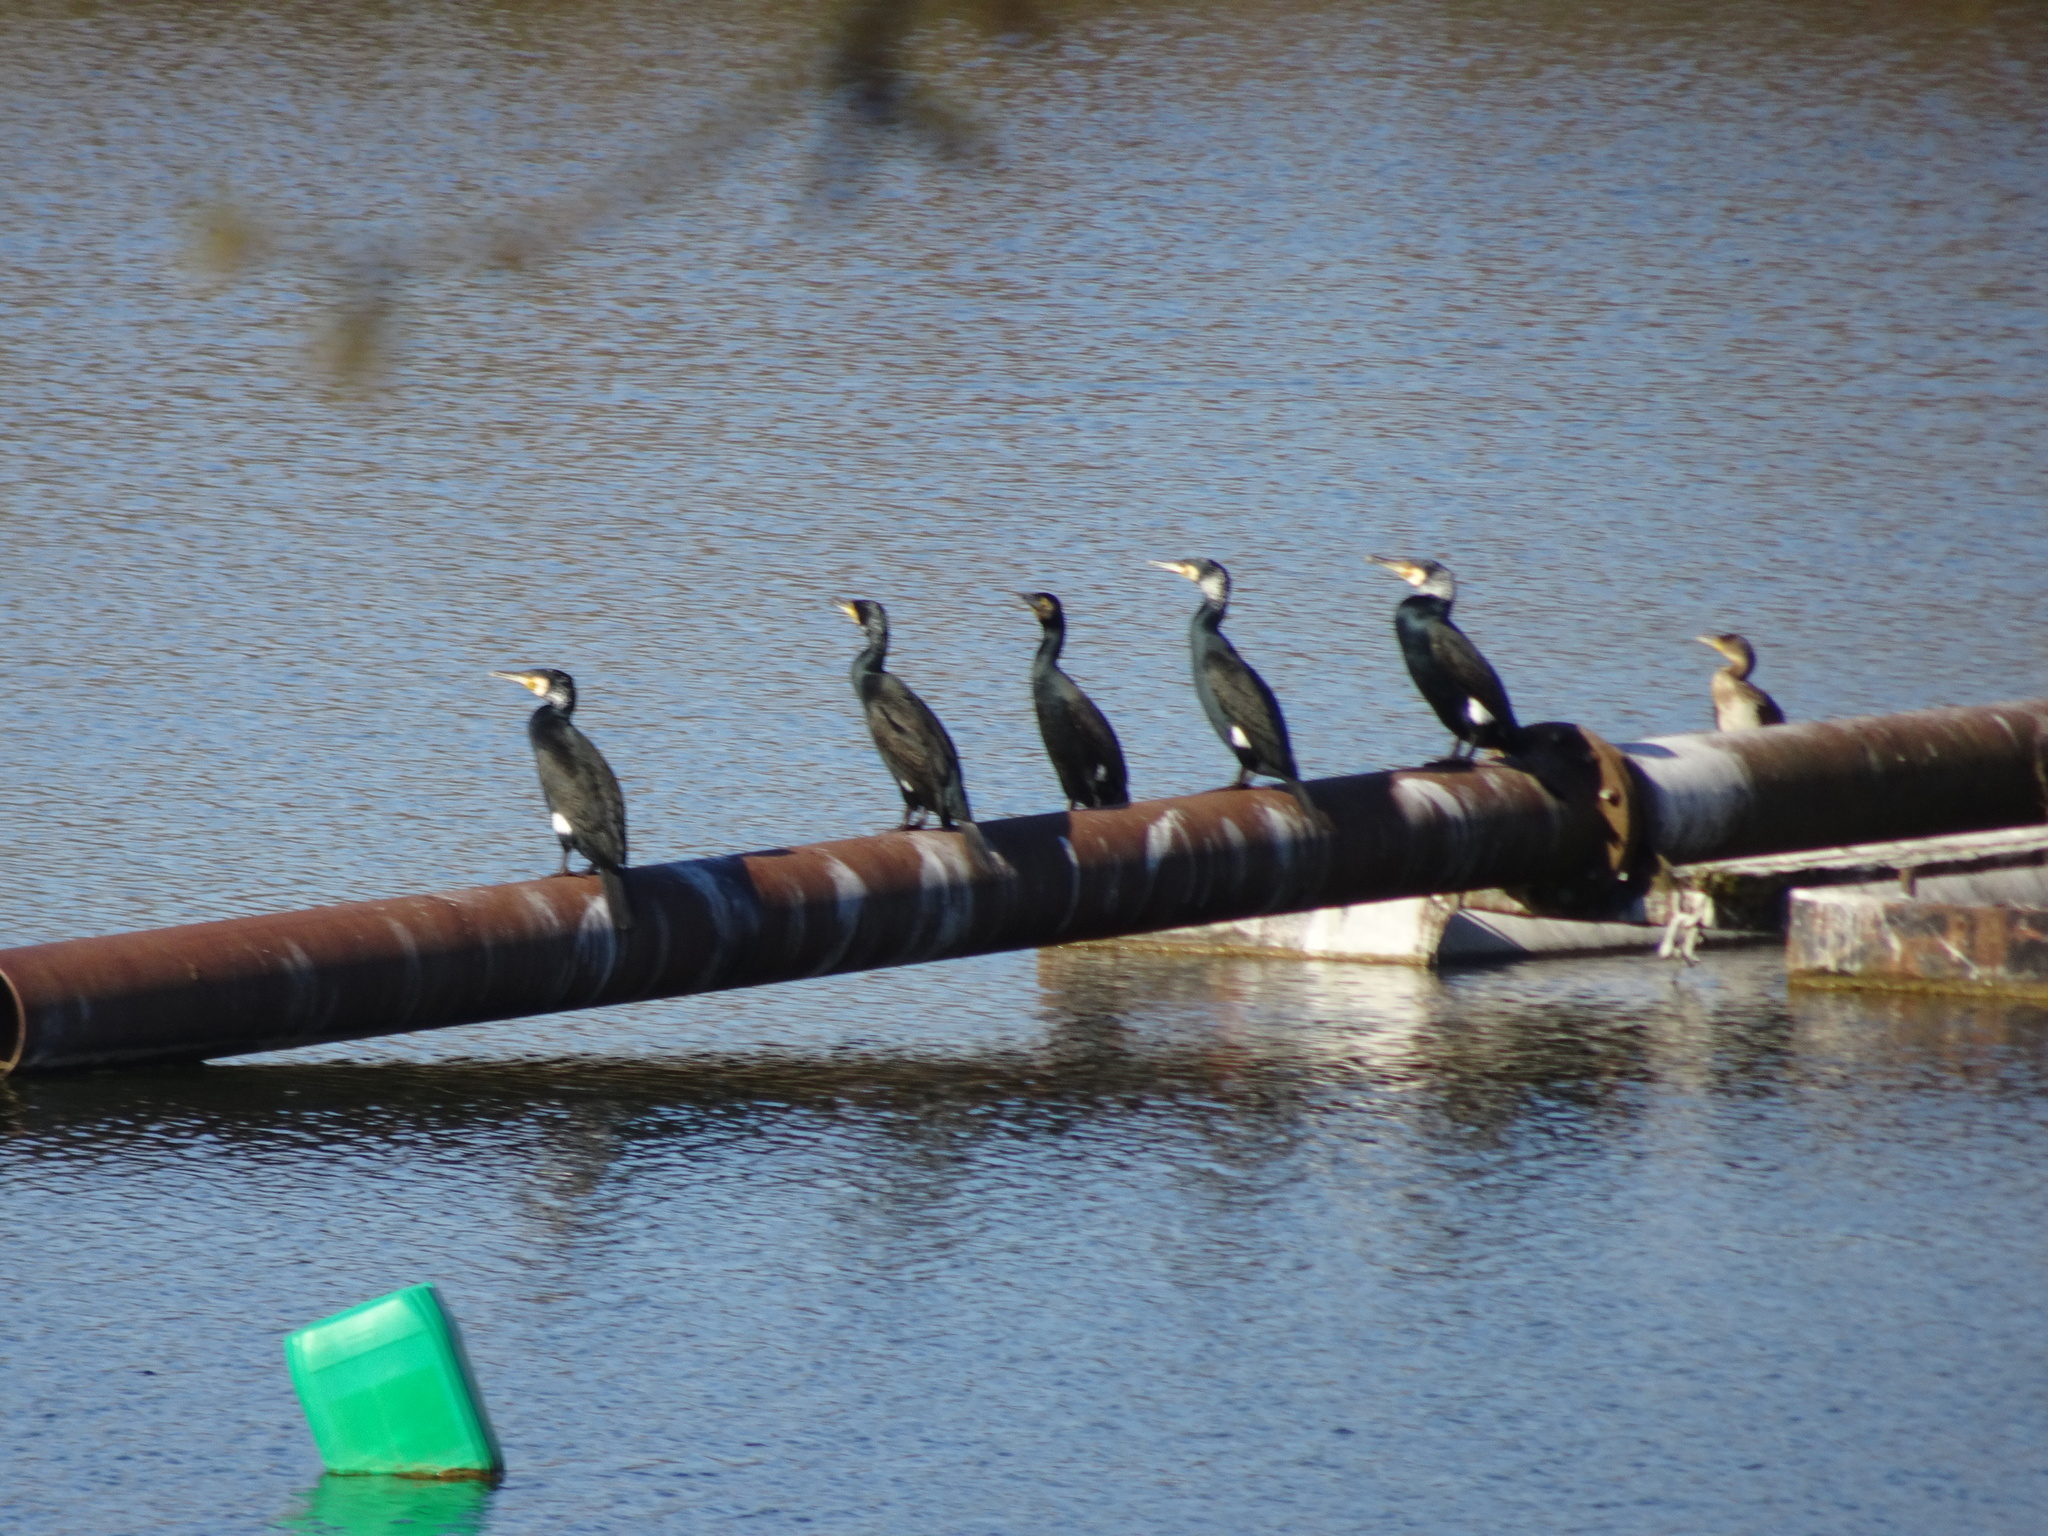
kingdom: Animalia
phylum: Chordata
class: Aves
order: Suliformes
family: Phalacrocoracidae
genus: Phalacrocorax
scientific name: Phalacrocorax carbo
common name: Great cormorant
